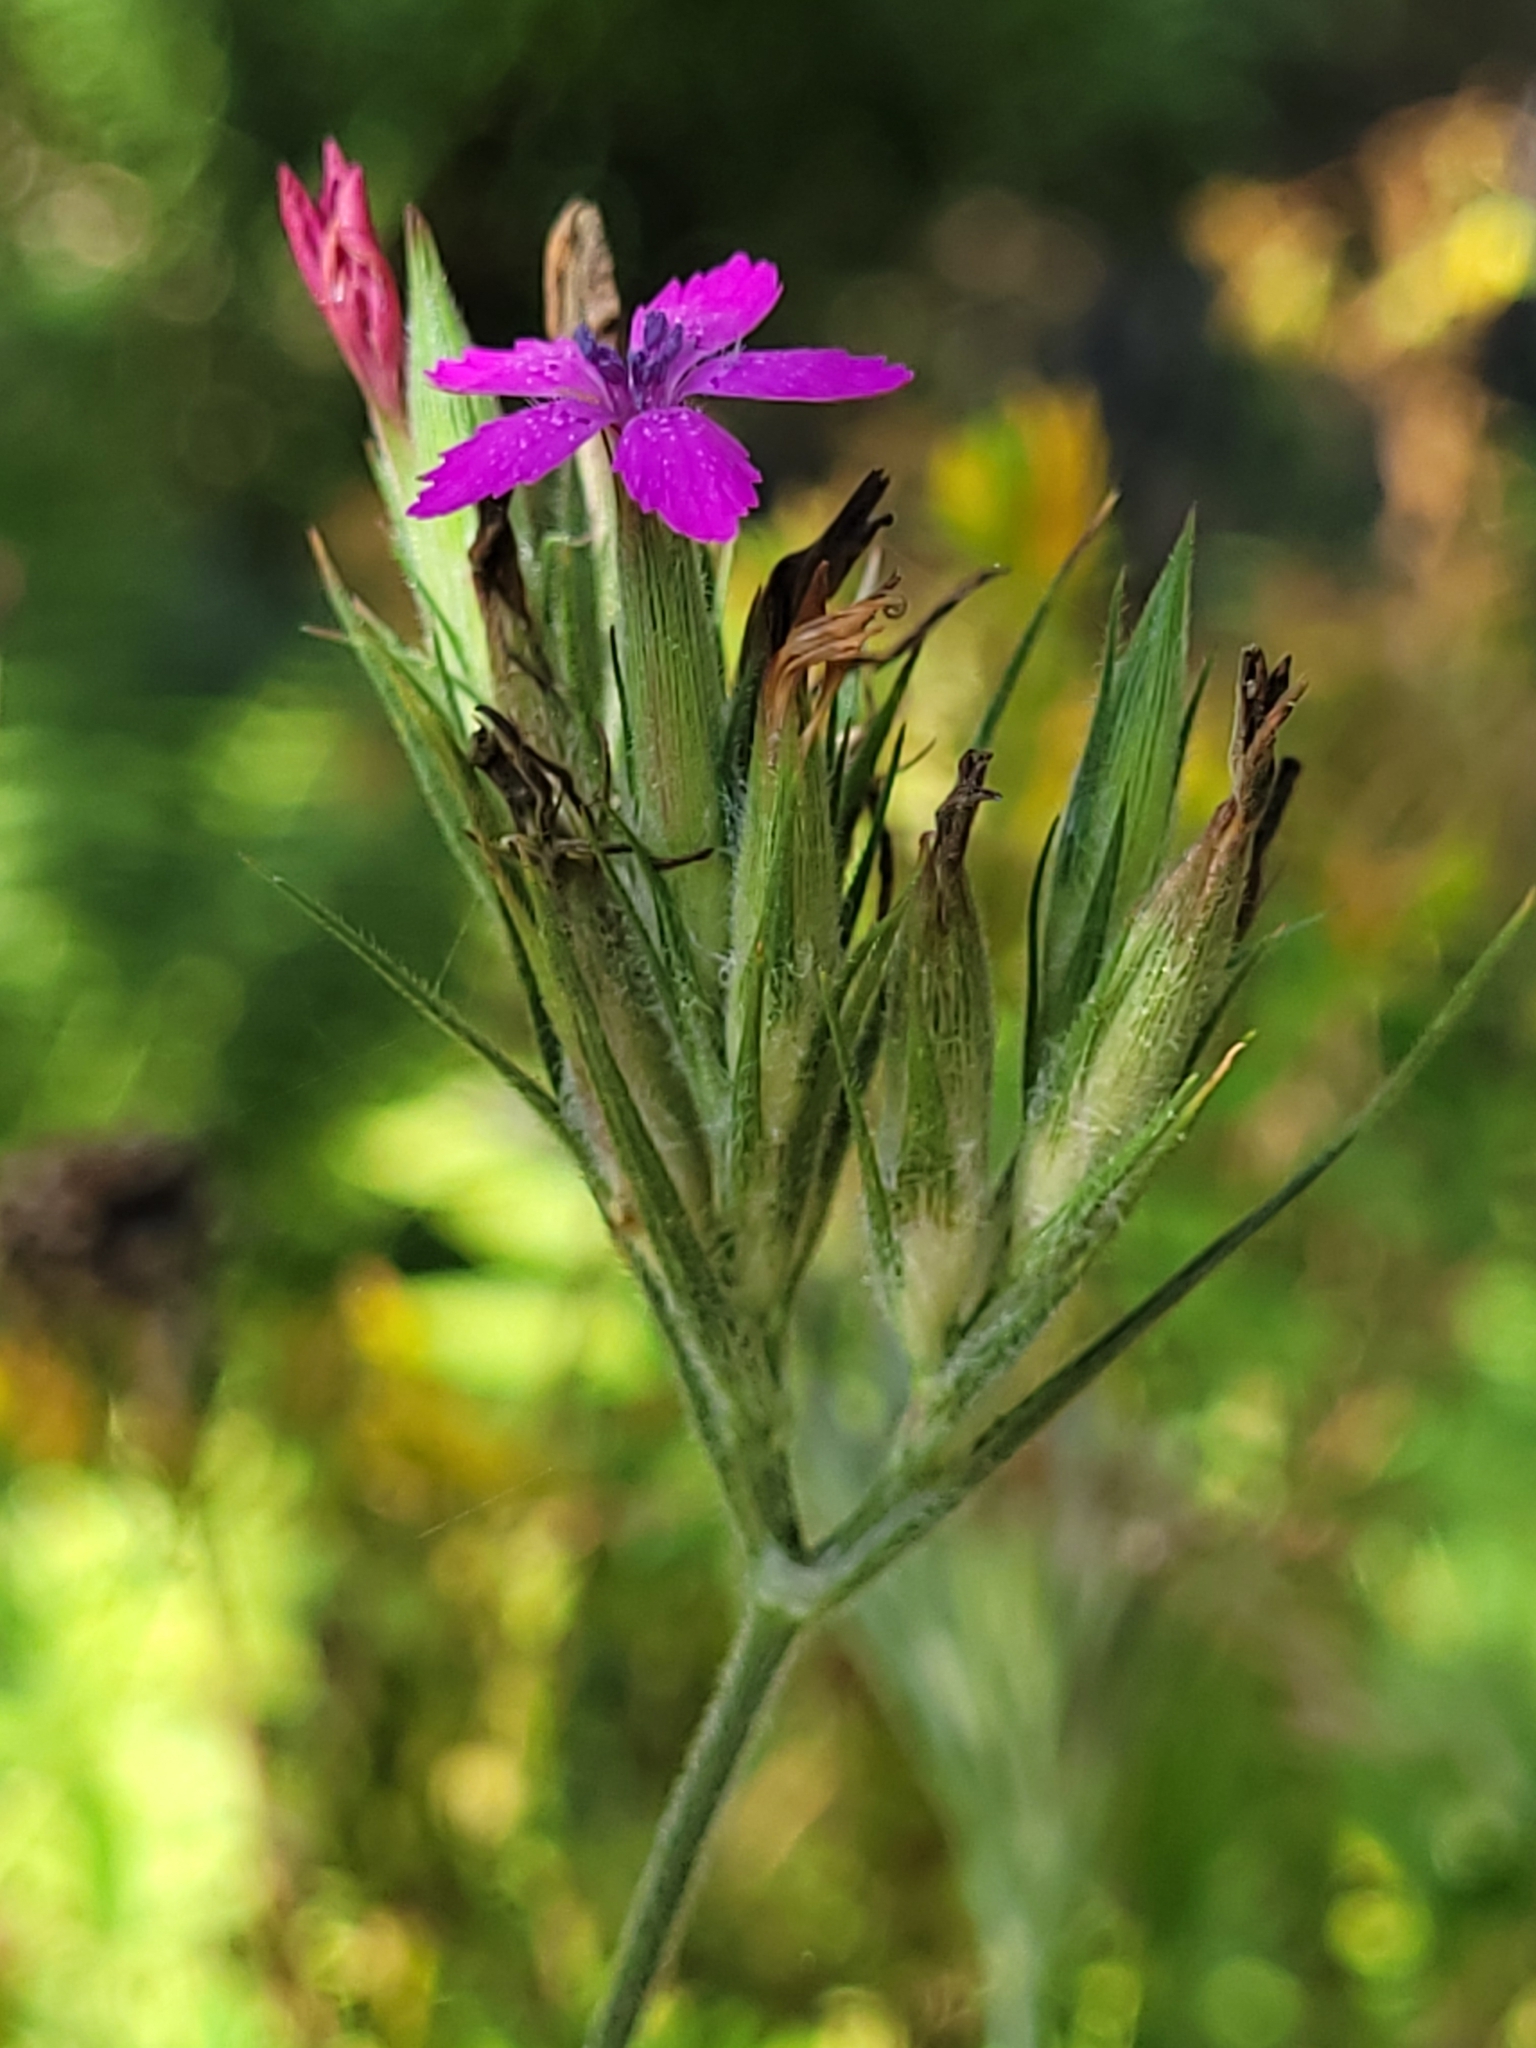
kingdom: Plantae
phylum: Tracheophyta
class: Magnoliopsida
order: Caryophyllales
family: Caryophyllaceae
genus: Dianthus
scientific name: Dianthus armeria
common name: Deptford pink
